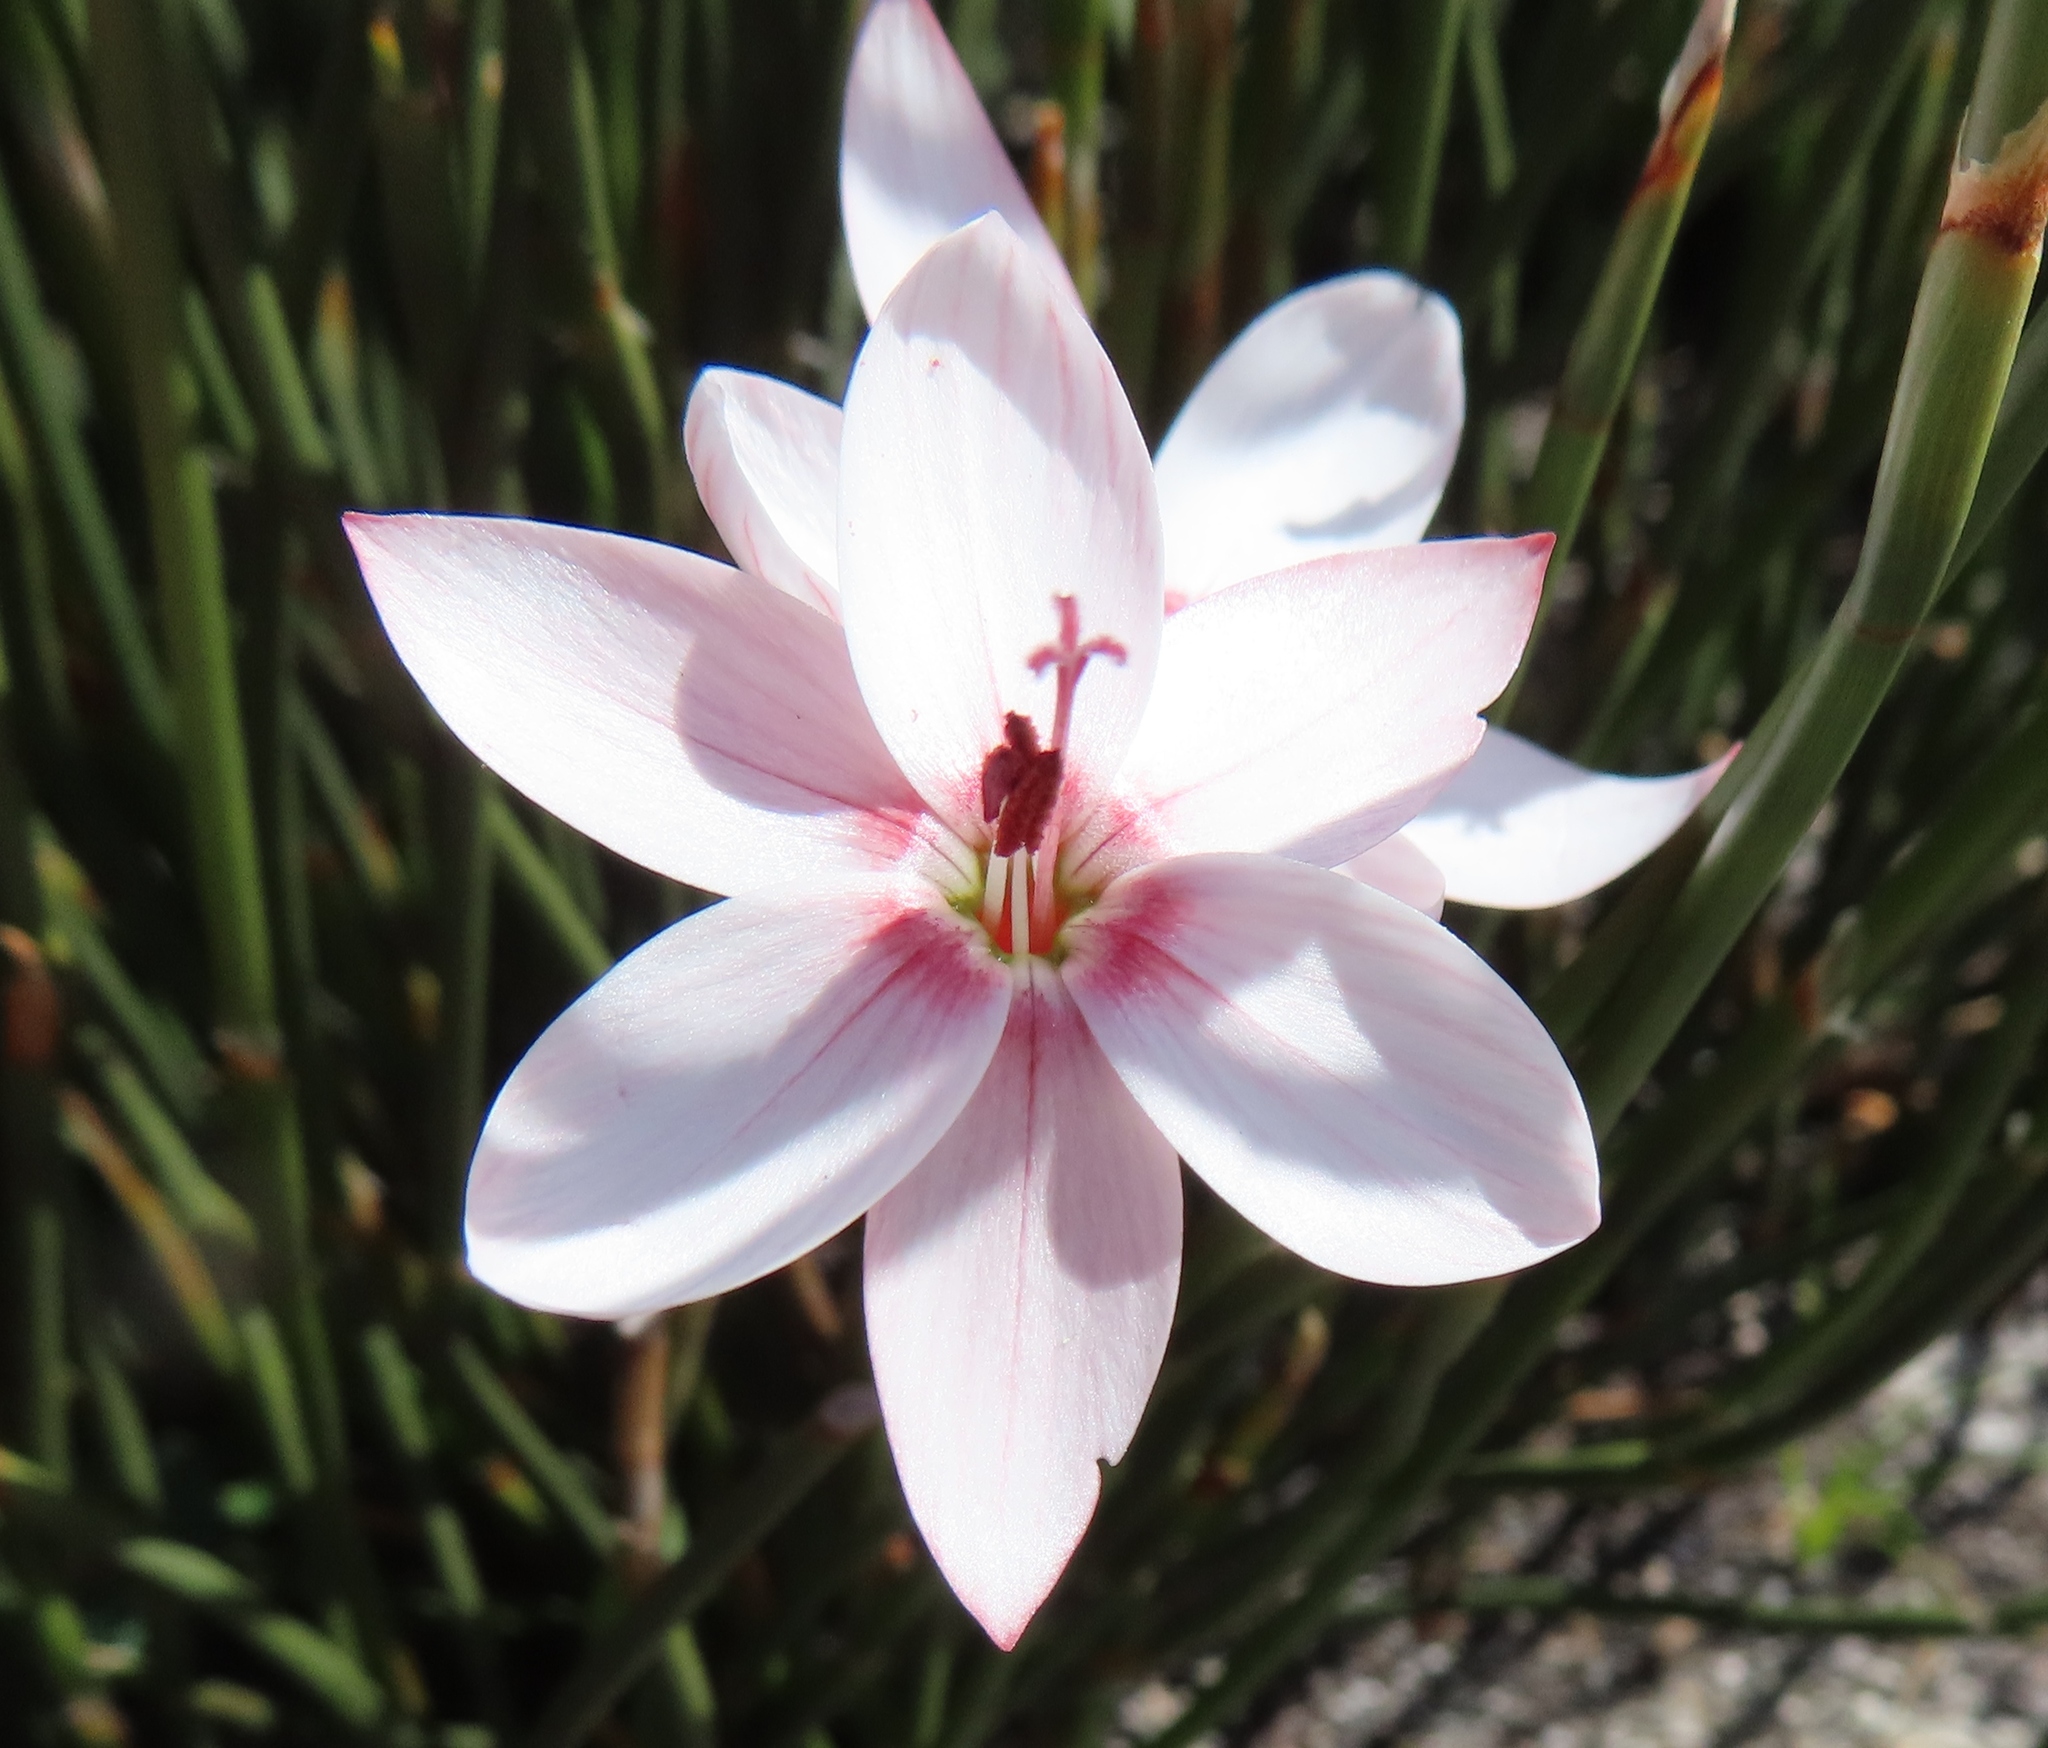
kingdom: Plantae
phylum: Tracheophyta
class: Liliopsida
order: Asparagales
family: Iridaceae
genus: Geissorhiza
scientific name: Geissorhiza ovata
